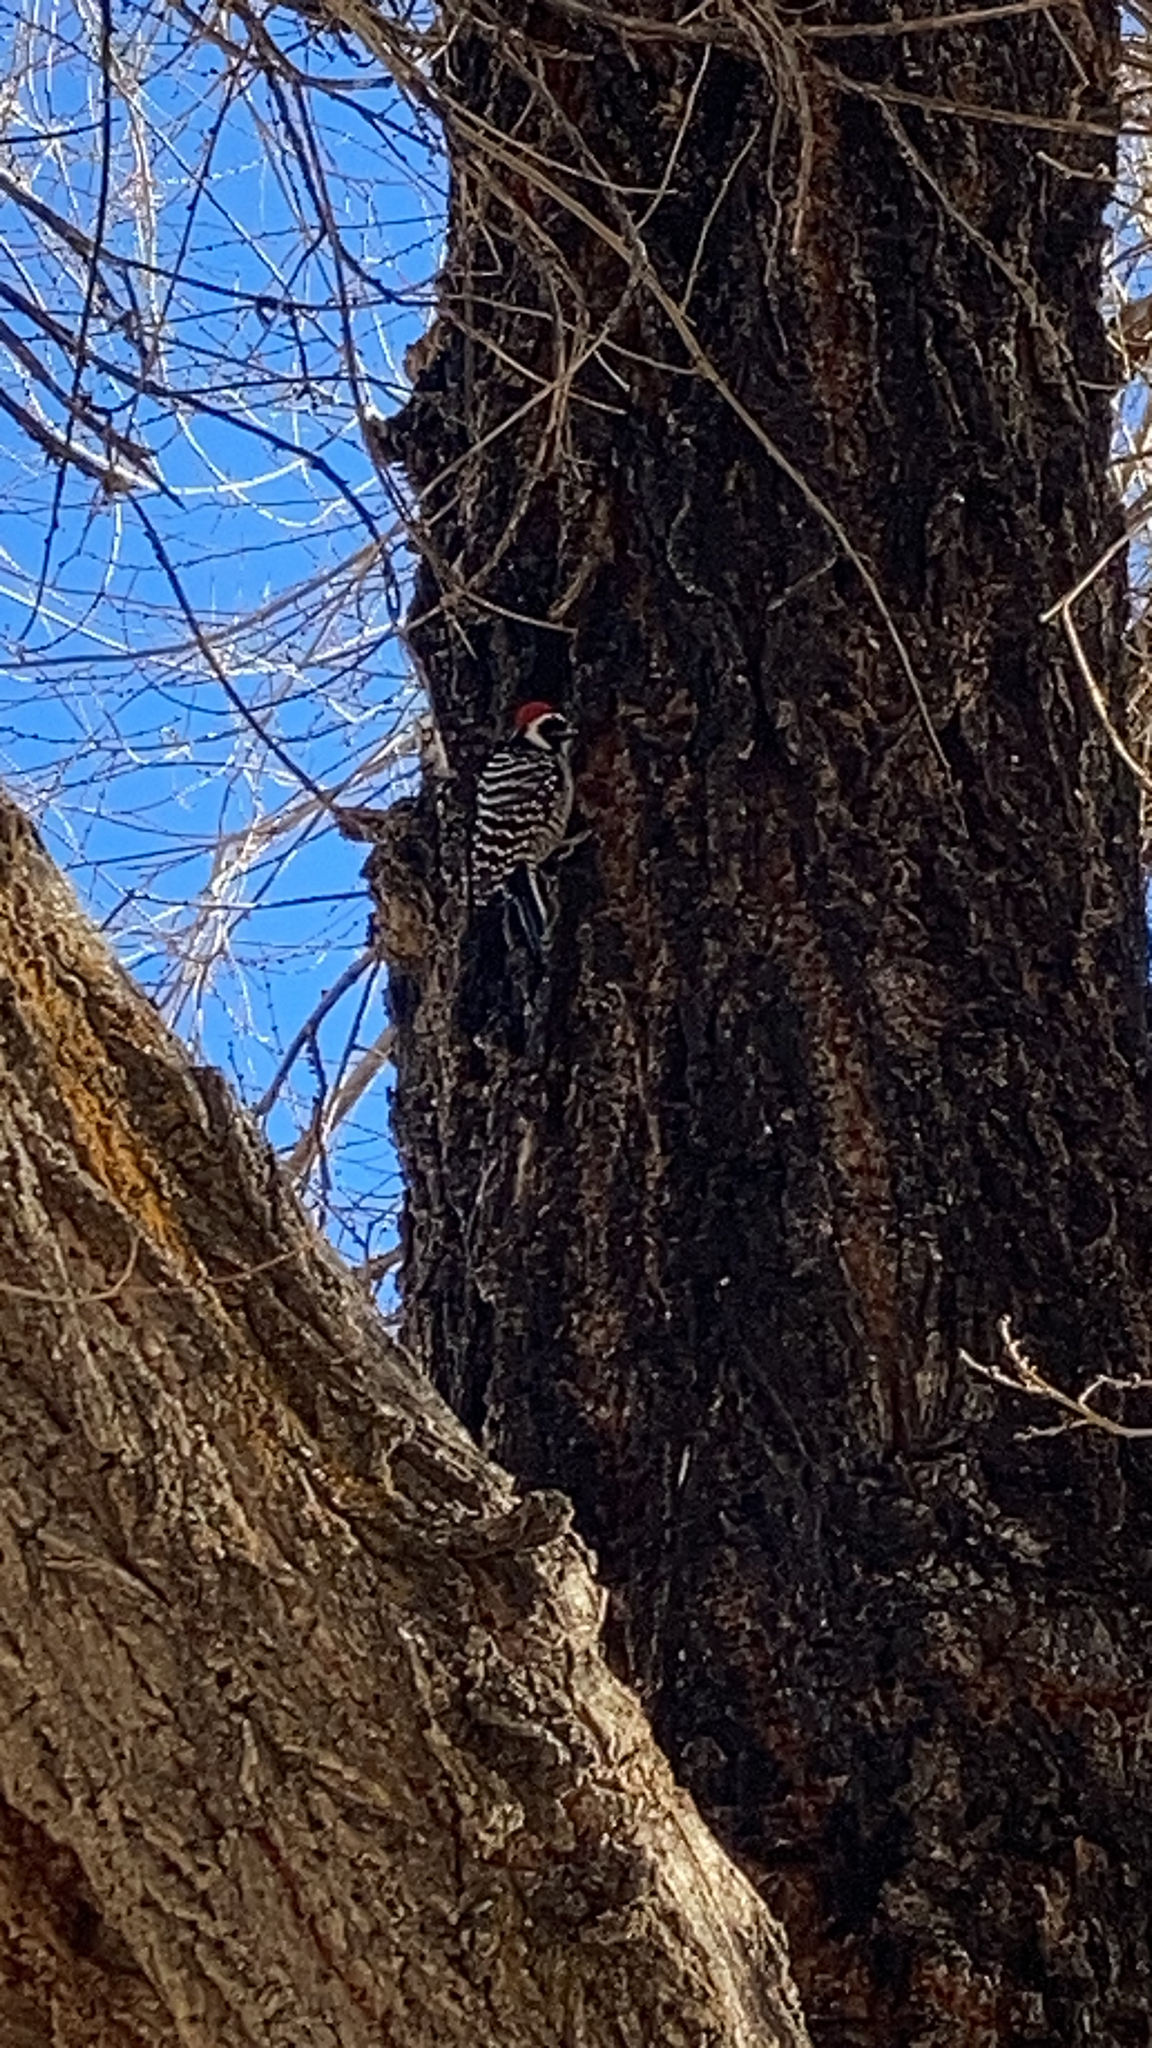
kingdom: Animalia
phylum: Chordata
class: Aves
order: Piciformes
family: Picidae
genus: Dryobates
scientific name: Dryobates nuttallii
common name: Nuttall's woodpecker
